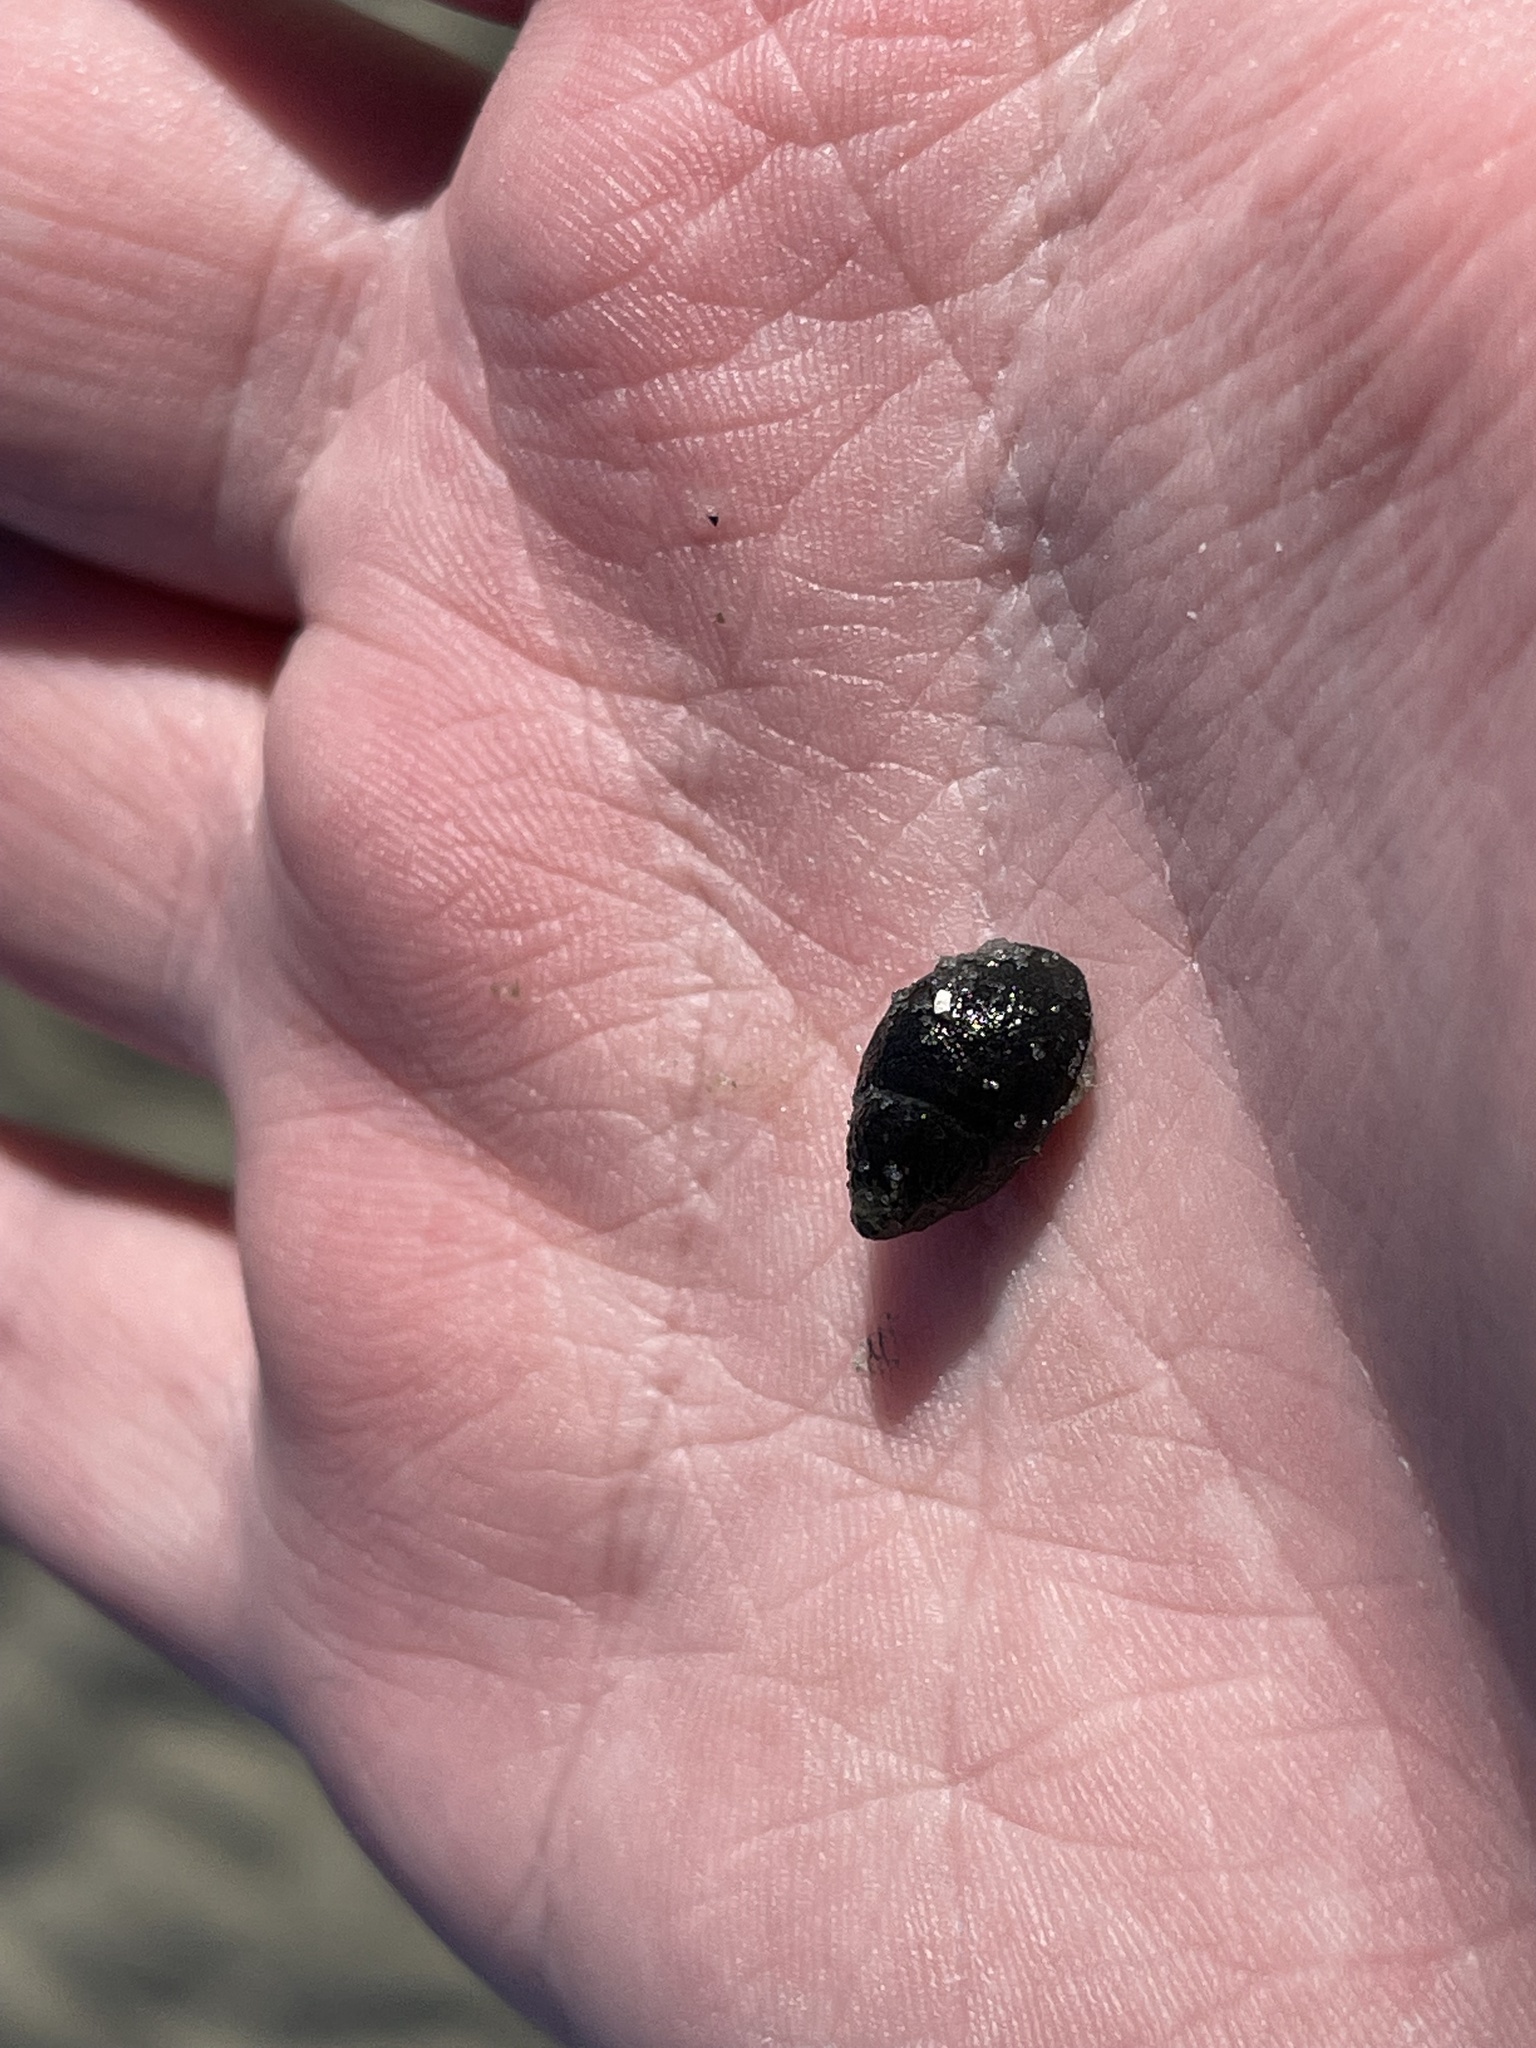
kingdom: Animalia
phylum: Mollusca
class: Gastropoda
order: Neogastropoda
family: Nassariidae
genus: Ilyanassa
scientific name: Ilyanassa obsoleta
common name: Eastern mudsnail
